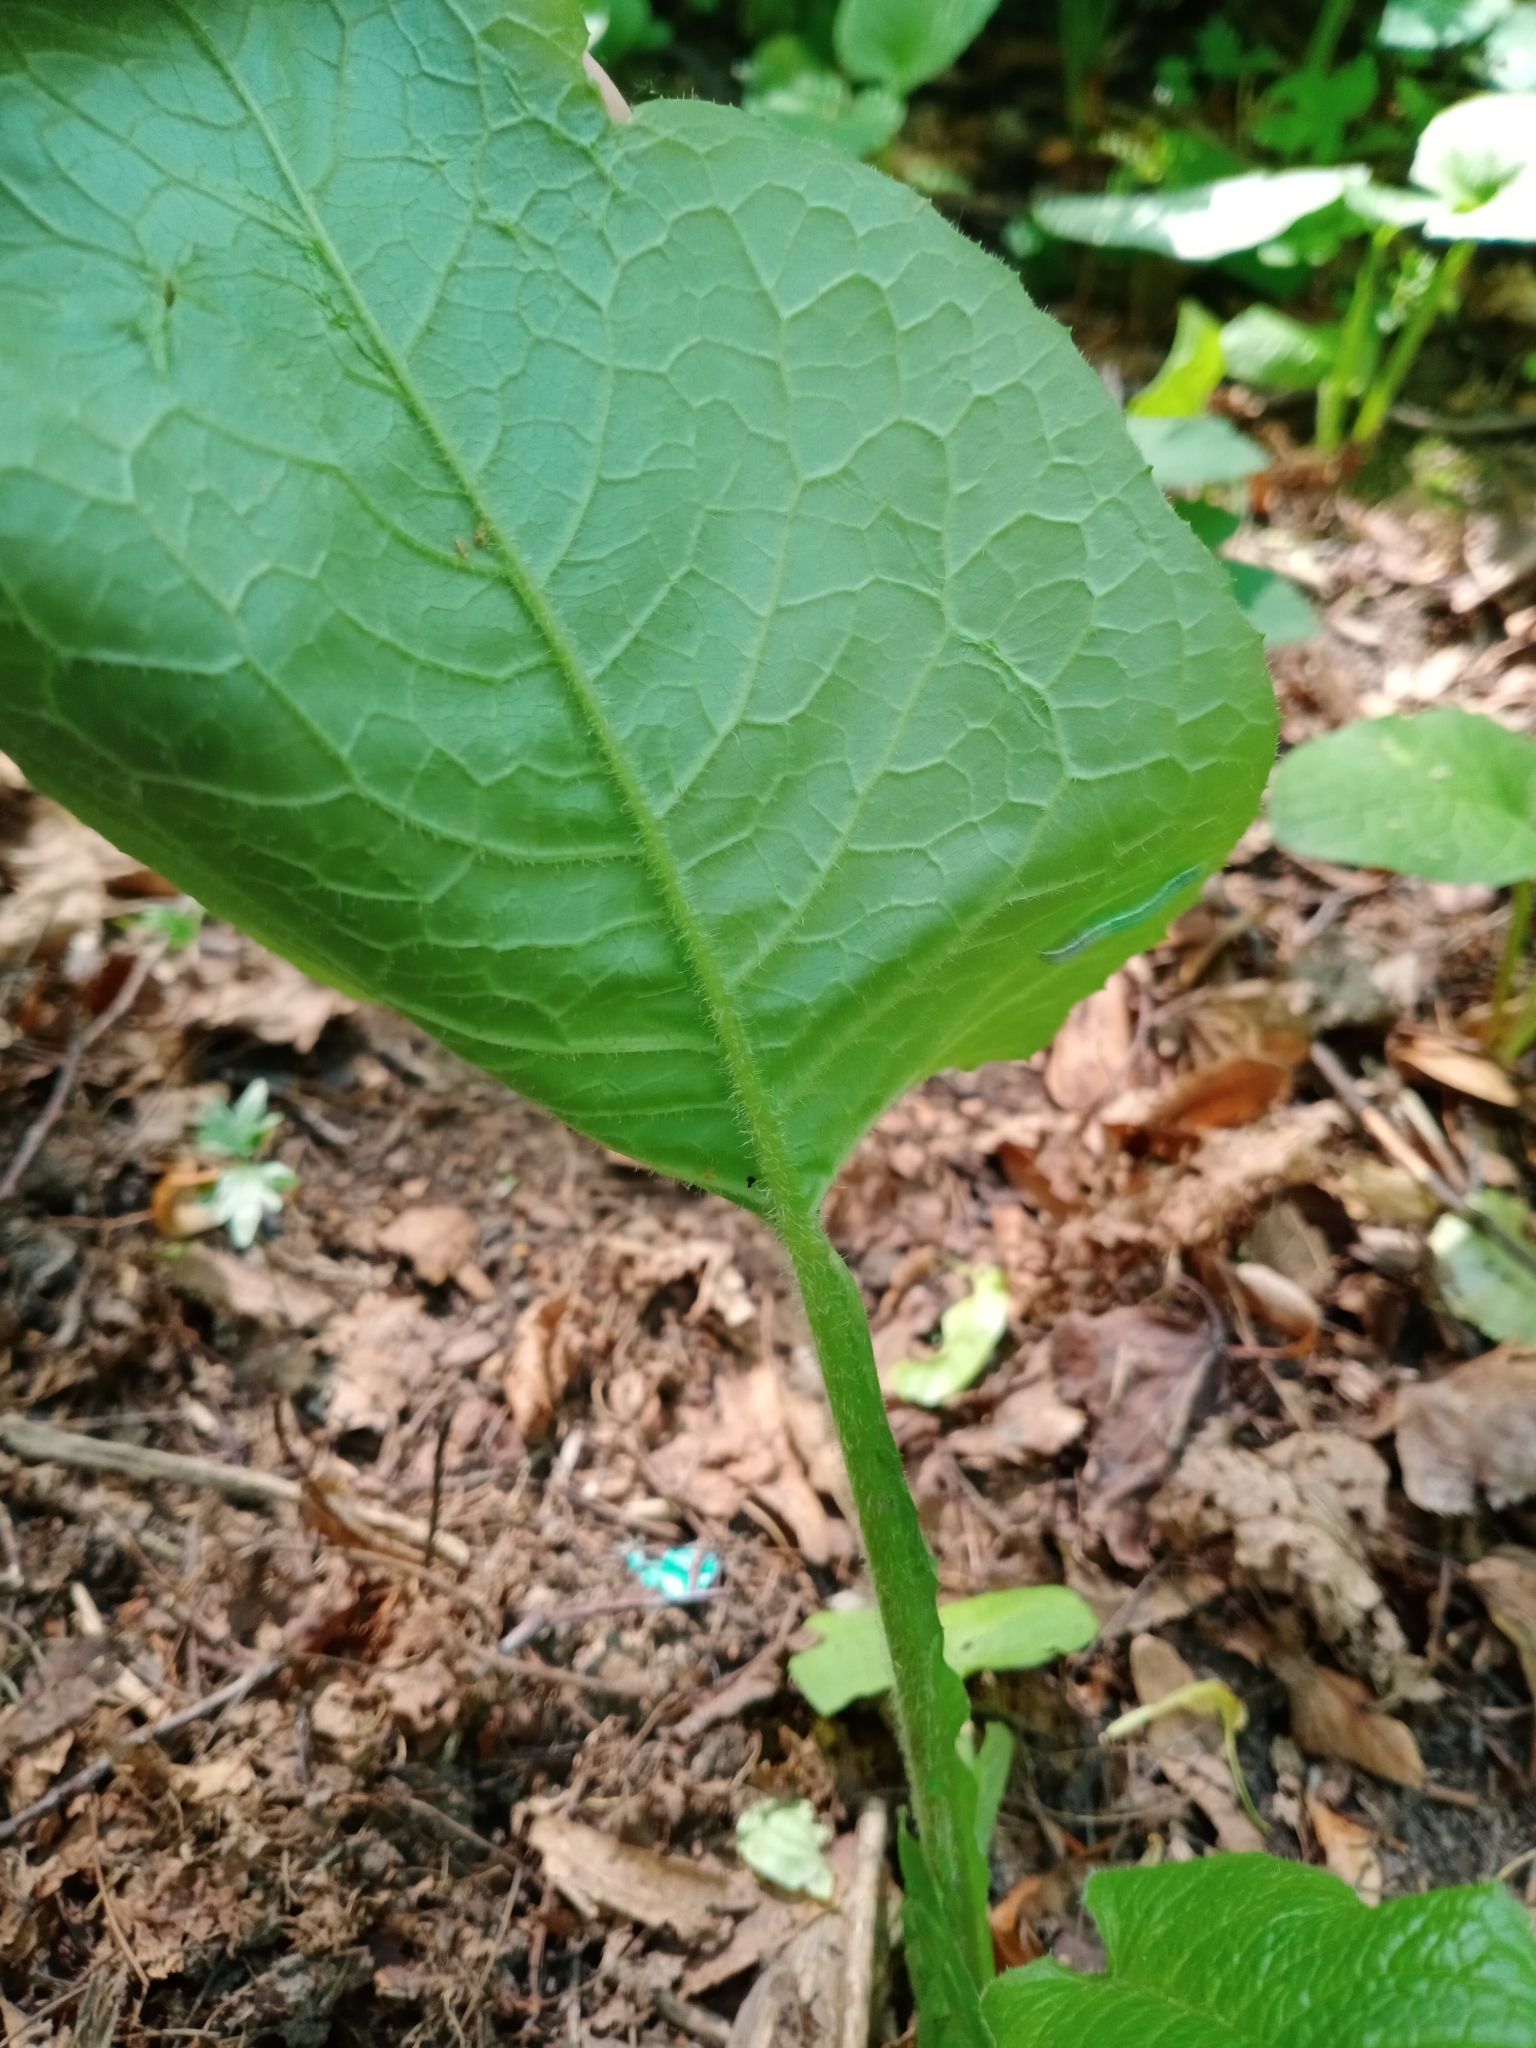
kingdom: Plantae
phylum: Tracheophyta
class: Magnoliopsida
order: Asterales
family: Asteraceae
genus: Lactuca
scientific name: Lactuca macrophylla
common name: Common blue-sow-thistle
